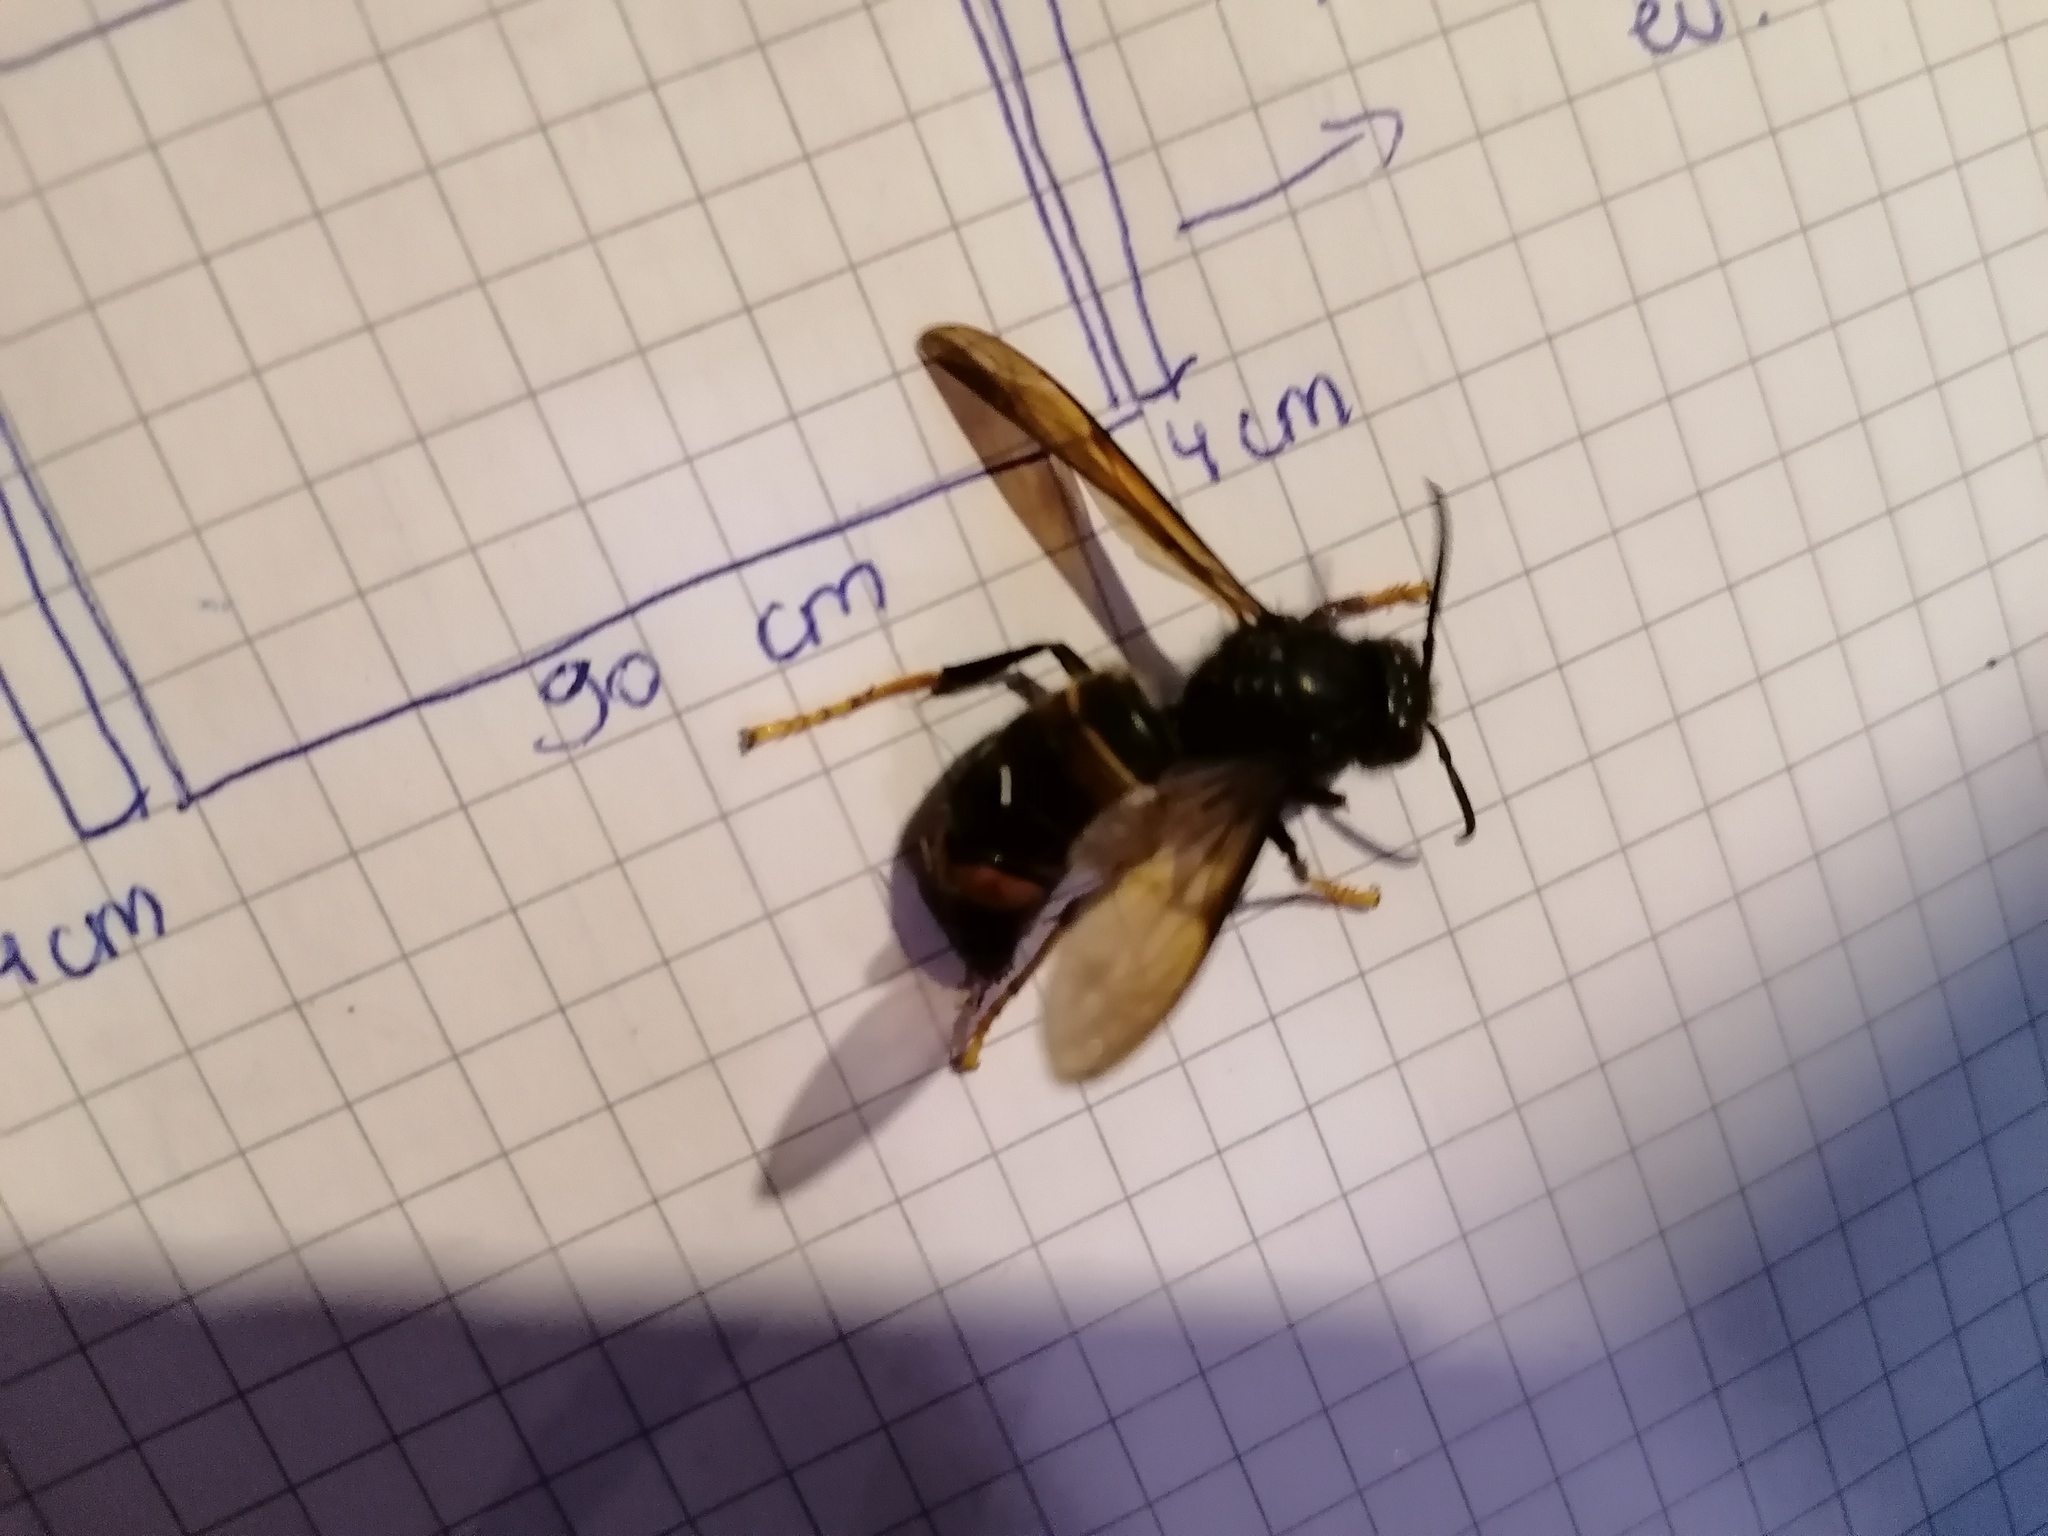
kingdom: Animalia
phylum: Arthropoda
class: Insecta
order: Hymenoptera
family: Vespidae
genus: Vespa
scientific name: Vespa velutina
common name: Asian hornet
